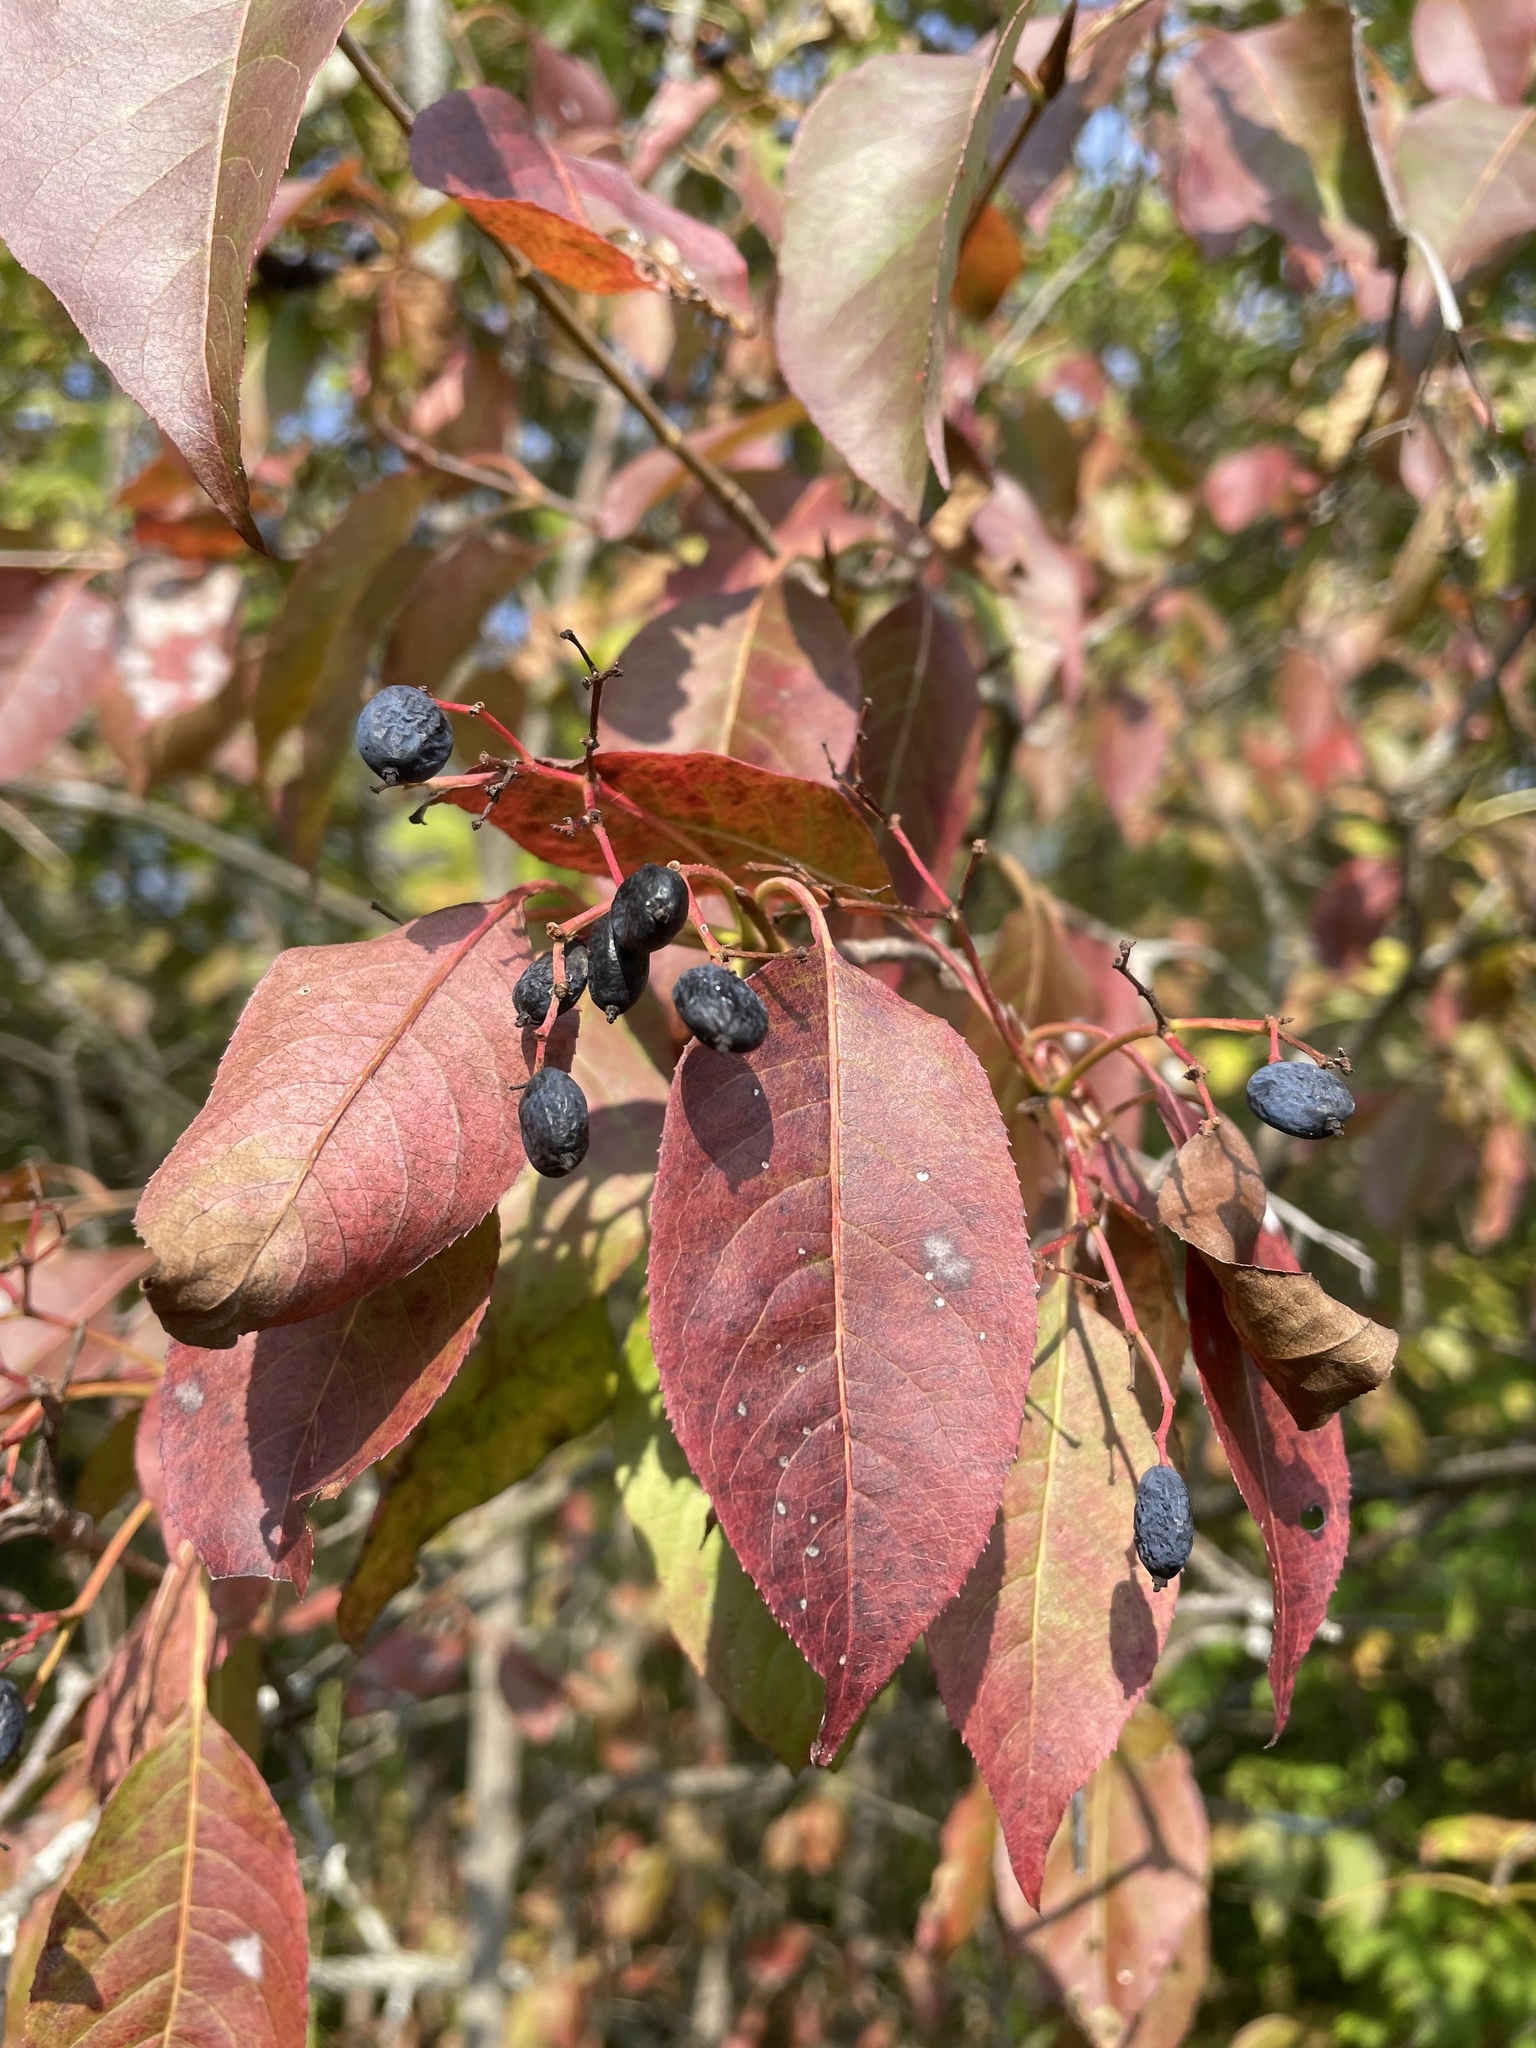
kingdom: Plantae
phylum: Tracheophyta
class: Magnoliopsida
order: Dipsacales
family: Viburnaceae
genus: Viburnum
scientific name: Viburnum lentago
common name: Black haw
